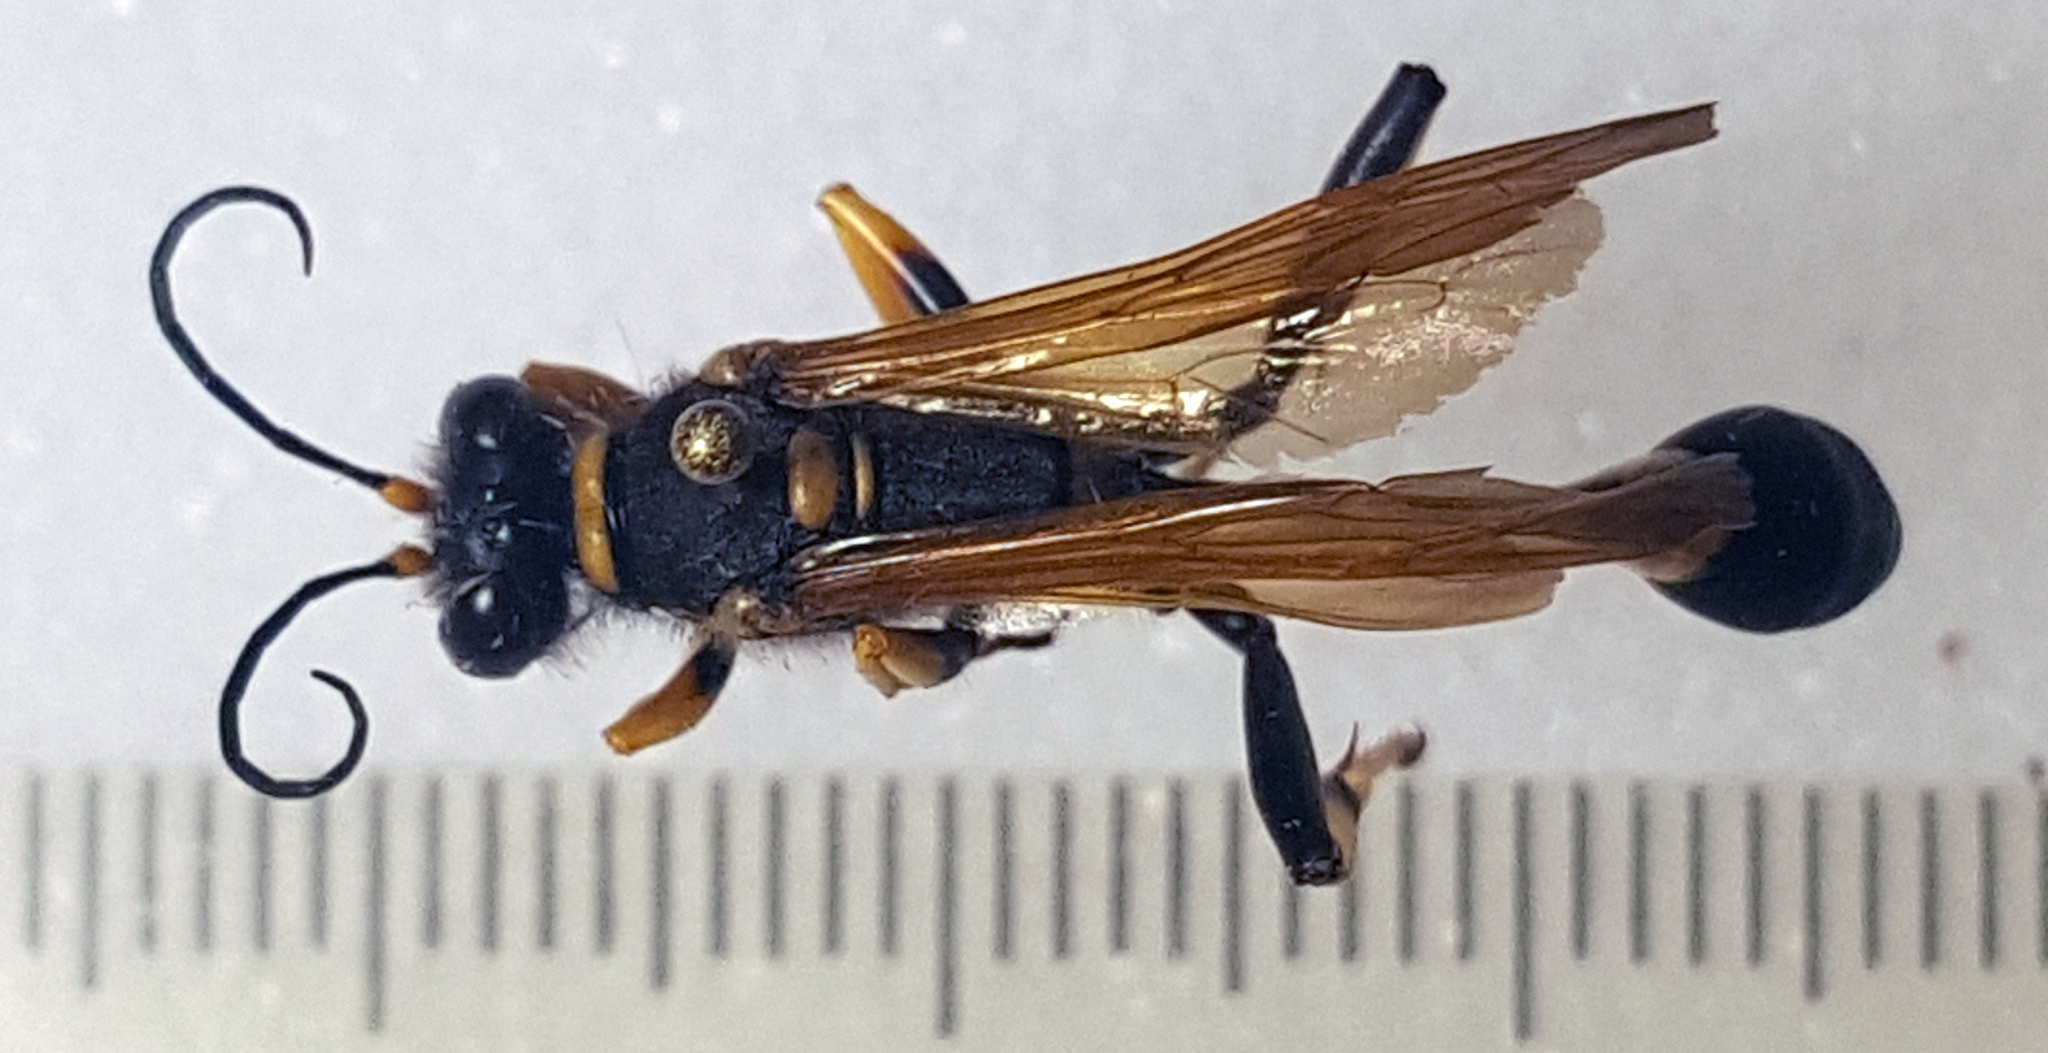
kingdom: Animalia
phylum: Arthropoda
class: Insecta
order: Hymenoptera
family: Sphecidae
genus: Sceliphron
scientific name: Sceliphron caementarium
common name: Mud dauber
